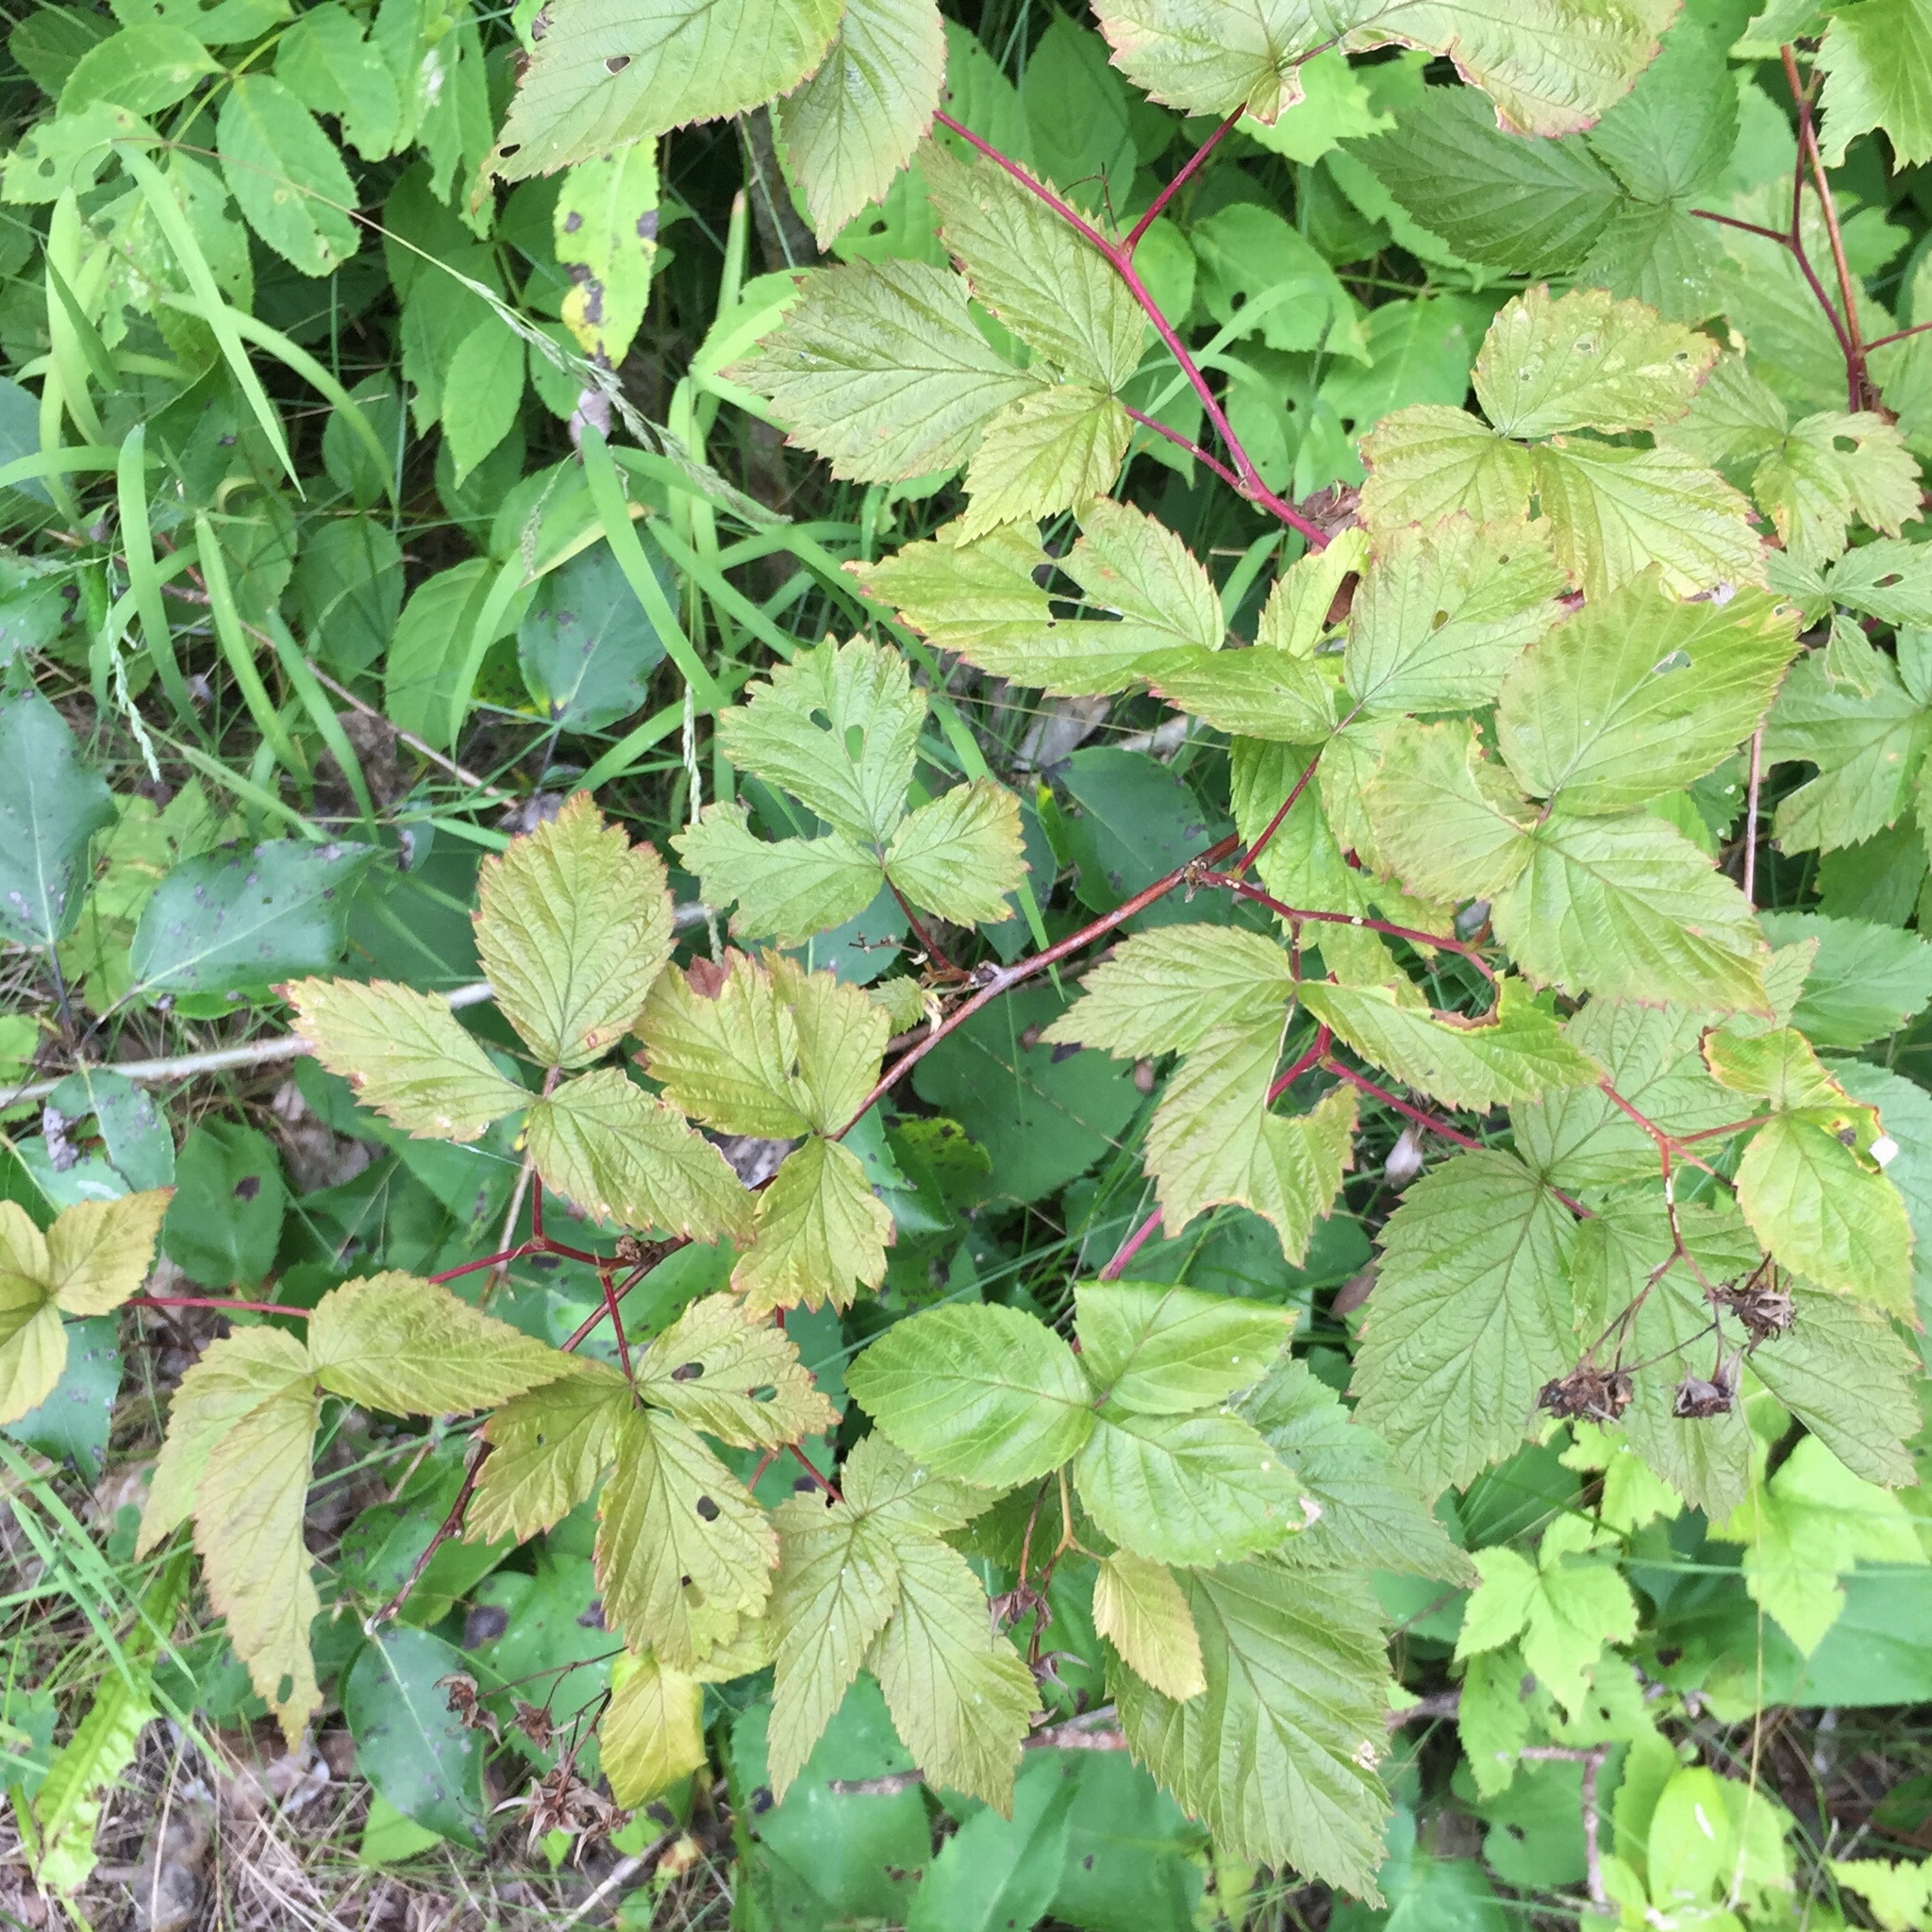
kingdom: Plantae
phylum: Tracheophyta
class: Magnoliopsida
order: Rosales
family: Rosaceae
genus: Rubus
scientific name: Rubus idaeus
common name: Raspberry
